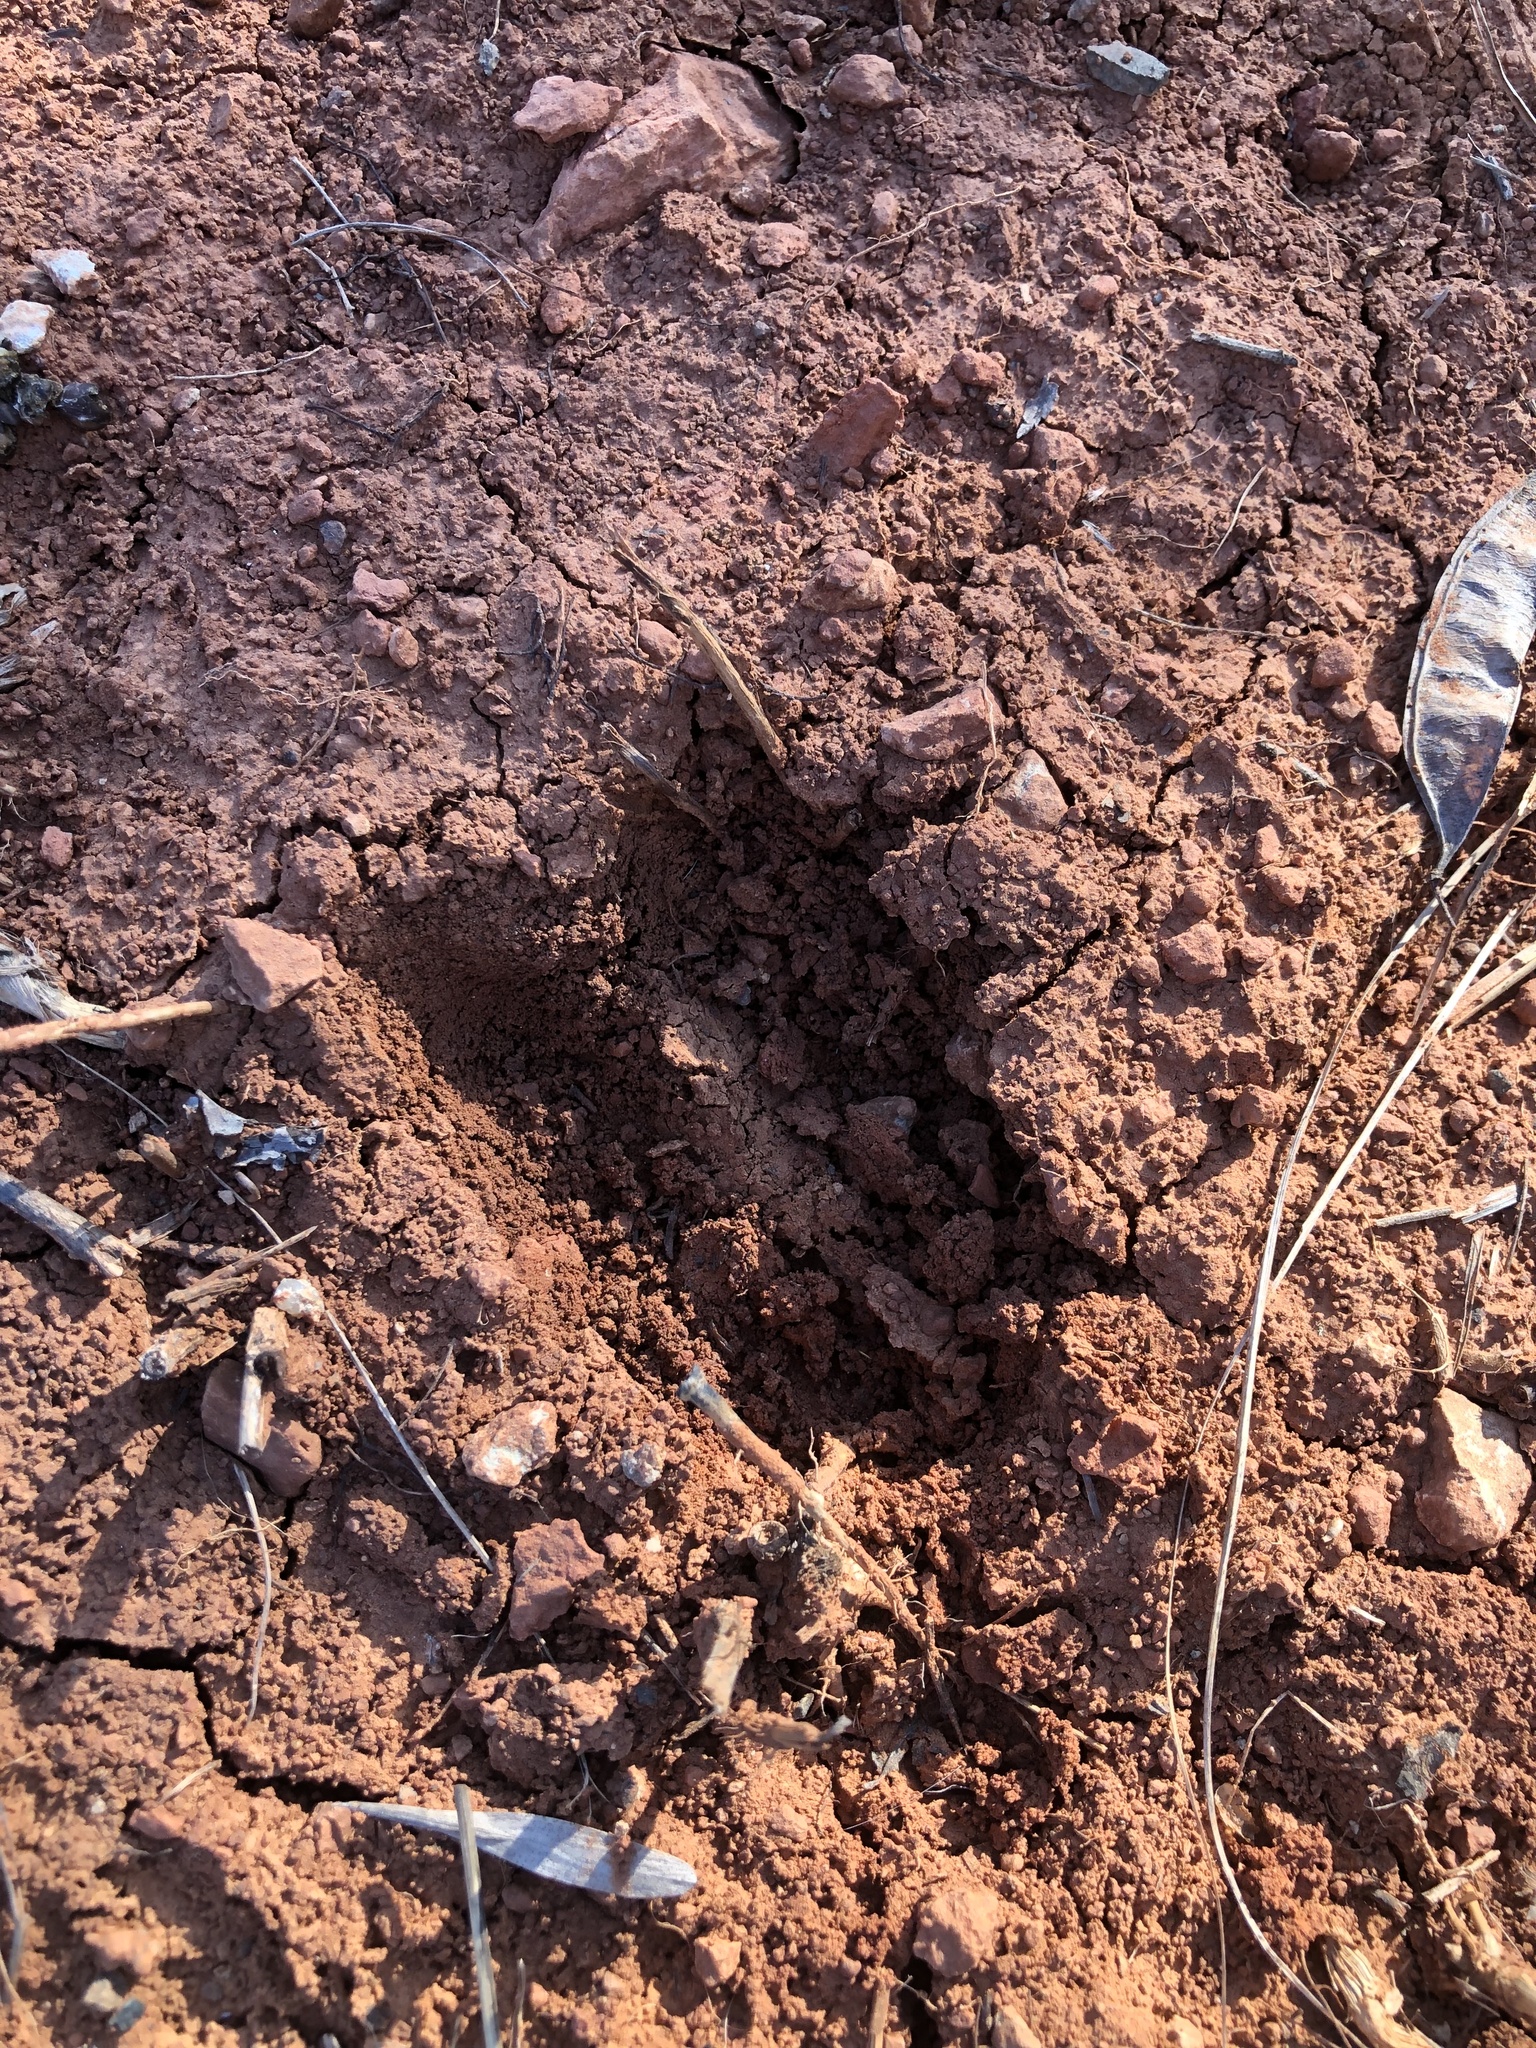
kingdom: Animalia
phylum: Chordata
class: Mammalia
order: Artiodactyla
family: Cervidae
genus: Odocoileus
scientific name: Odocoileus virginianus
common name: White-tailed deer
